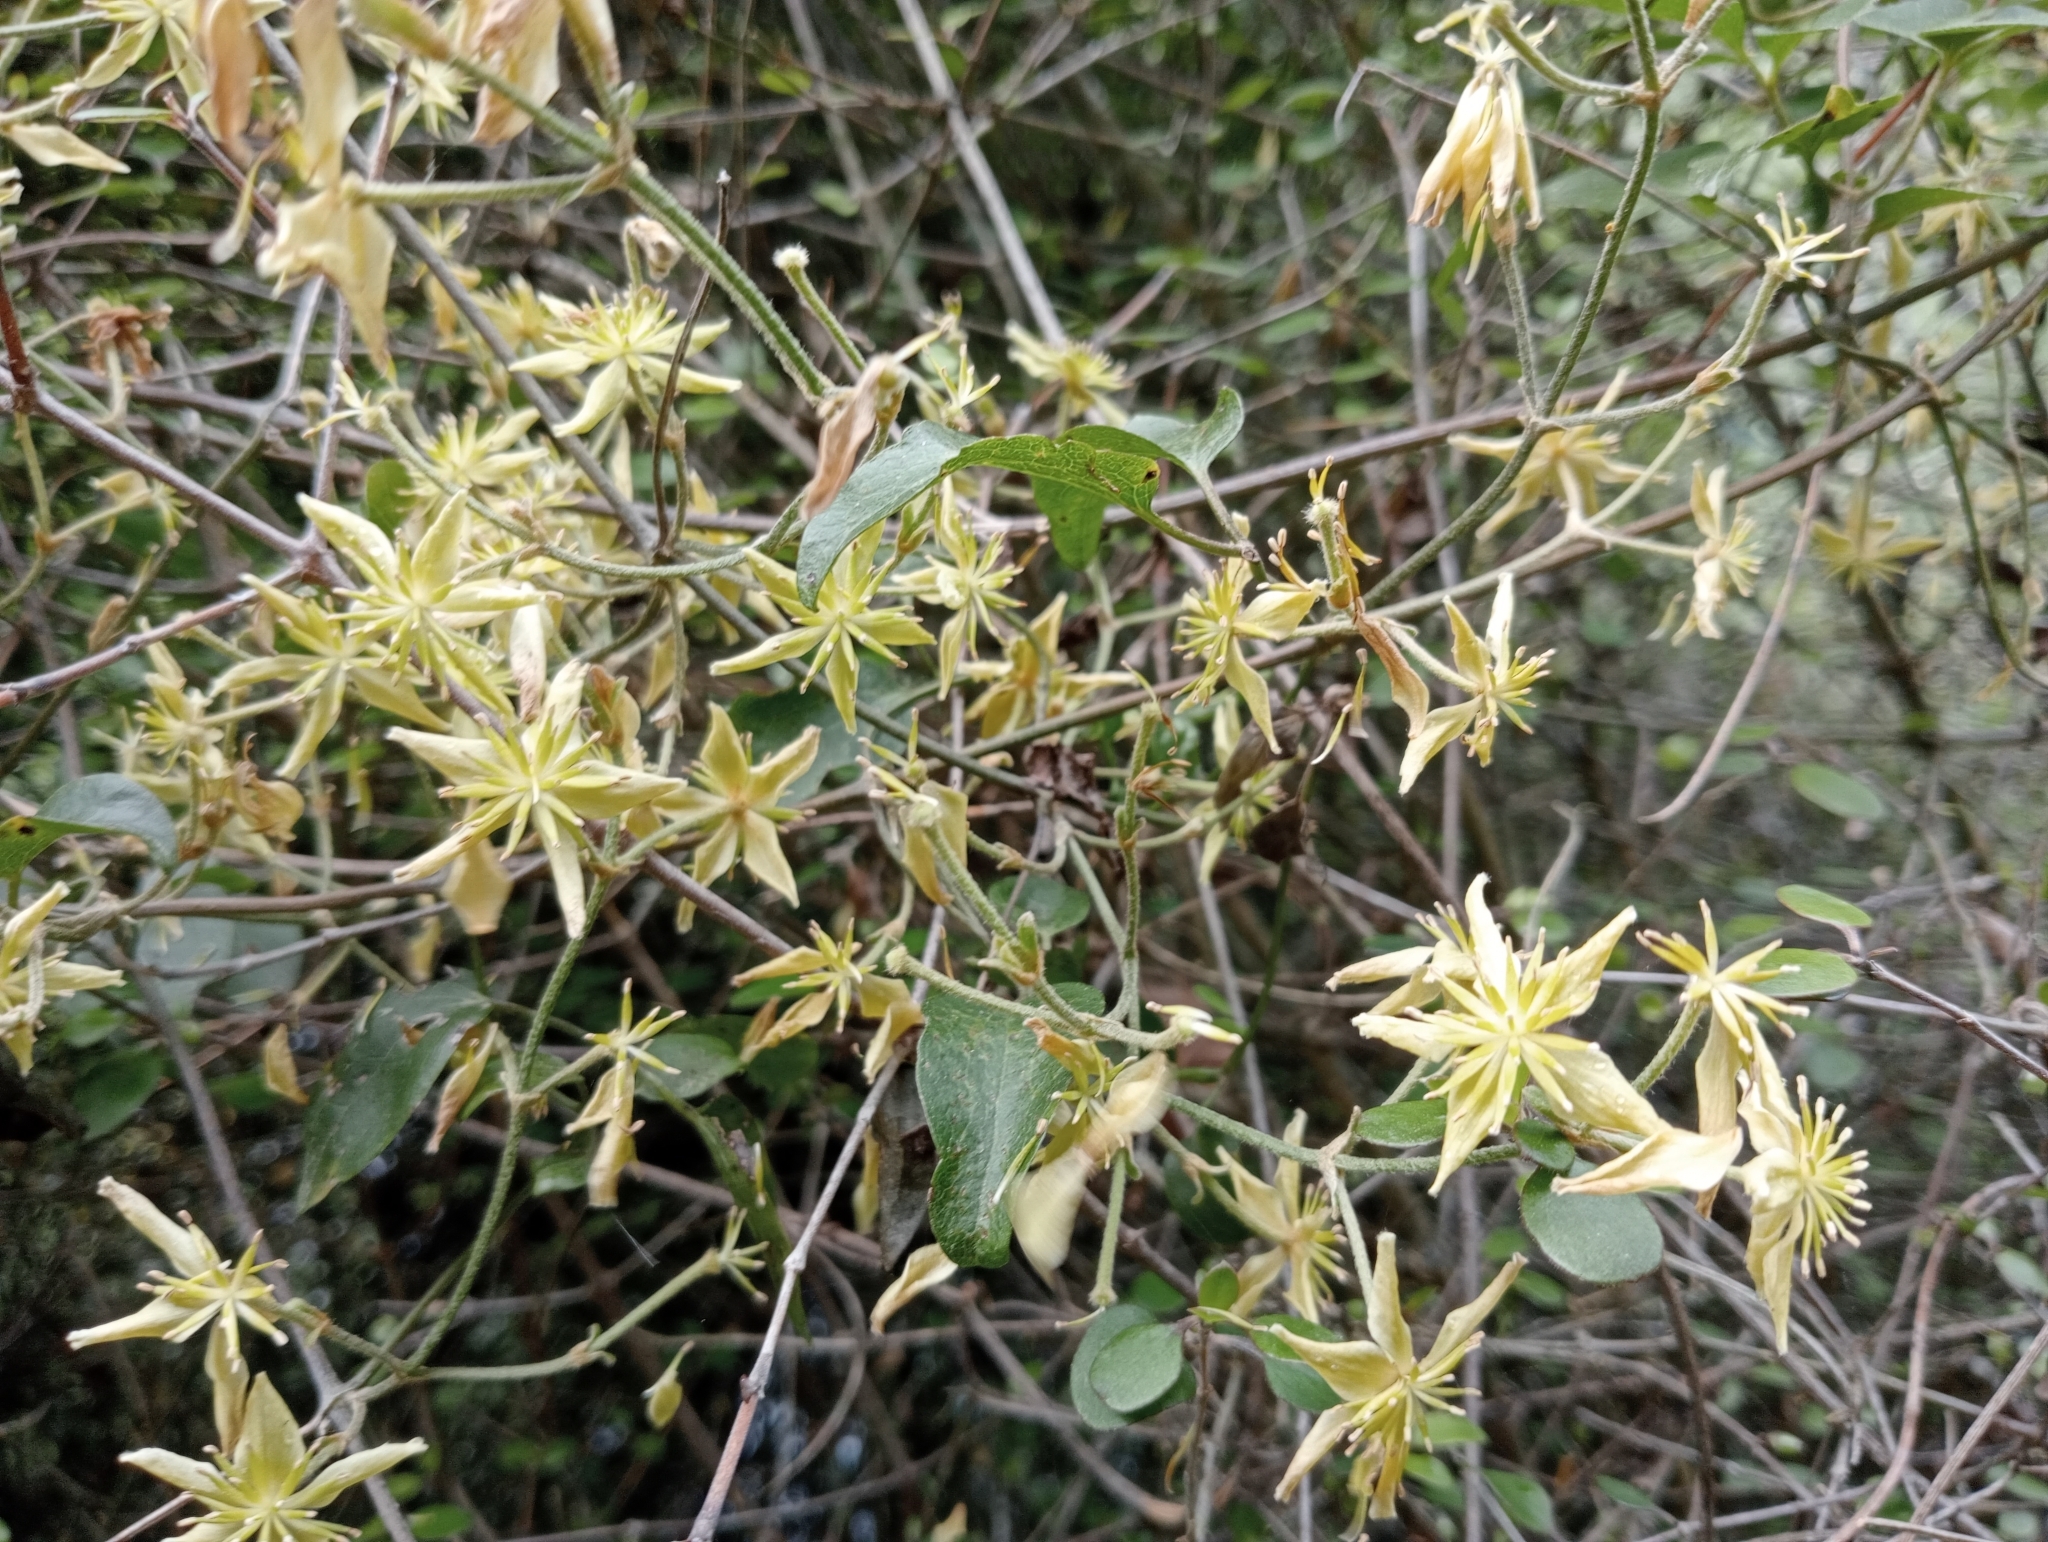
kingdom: Plantae
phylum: Tracheophyta
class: Magnoliopsida
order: Ranunculales
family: Ranunculaceae
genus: Clematis
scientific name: Clematis foetida
